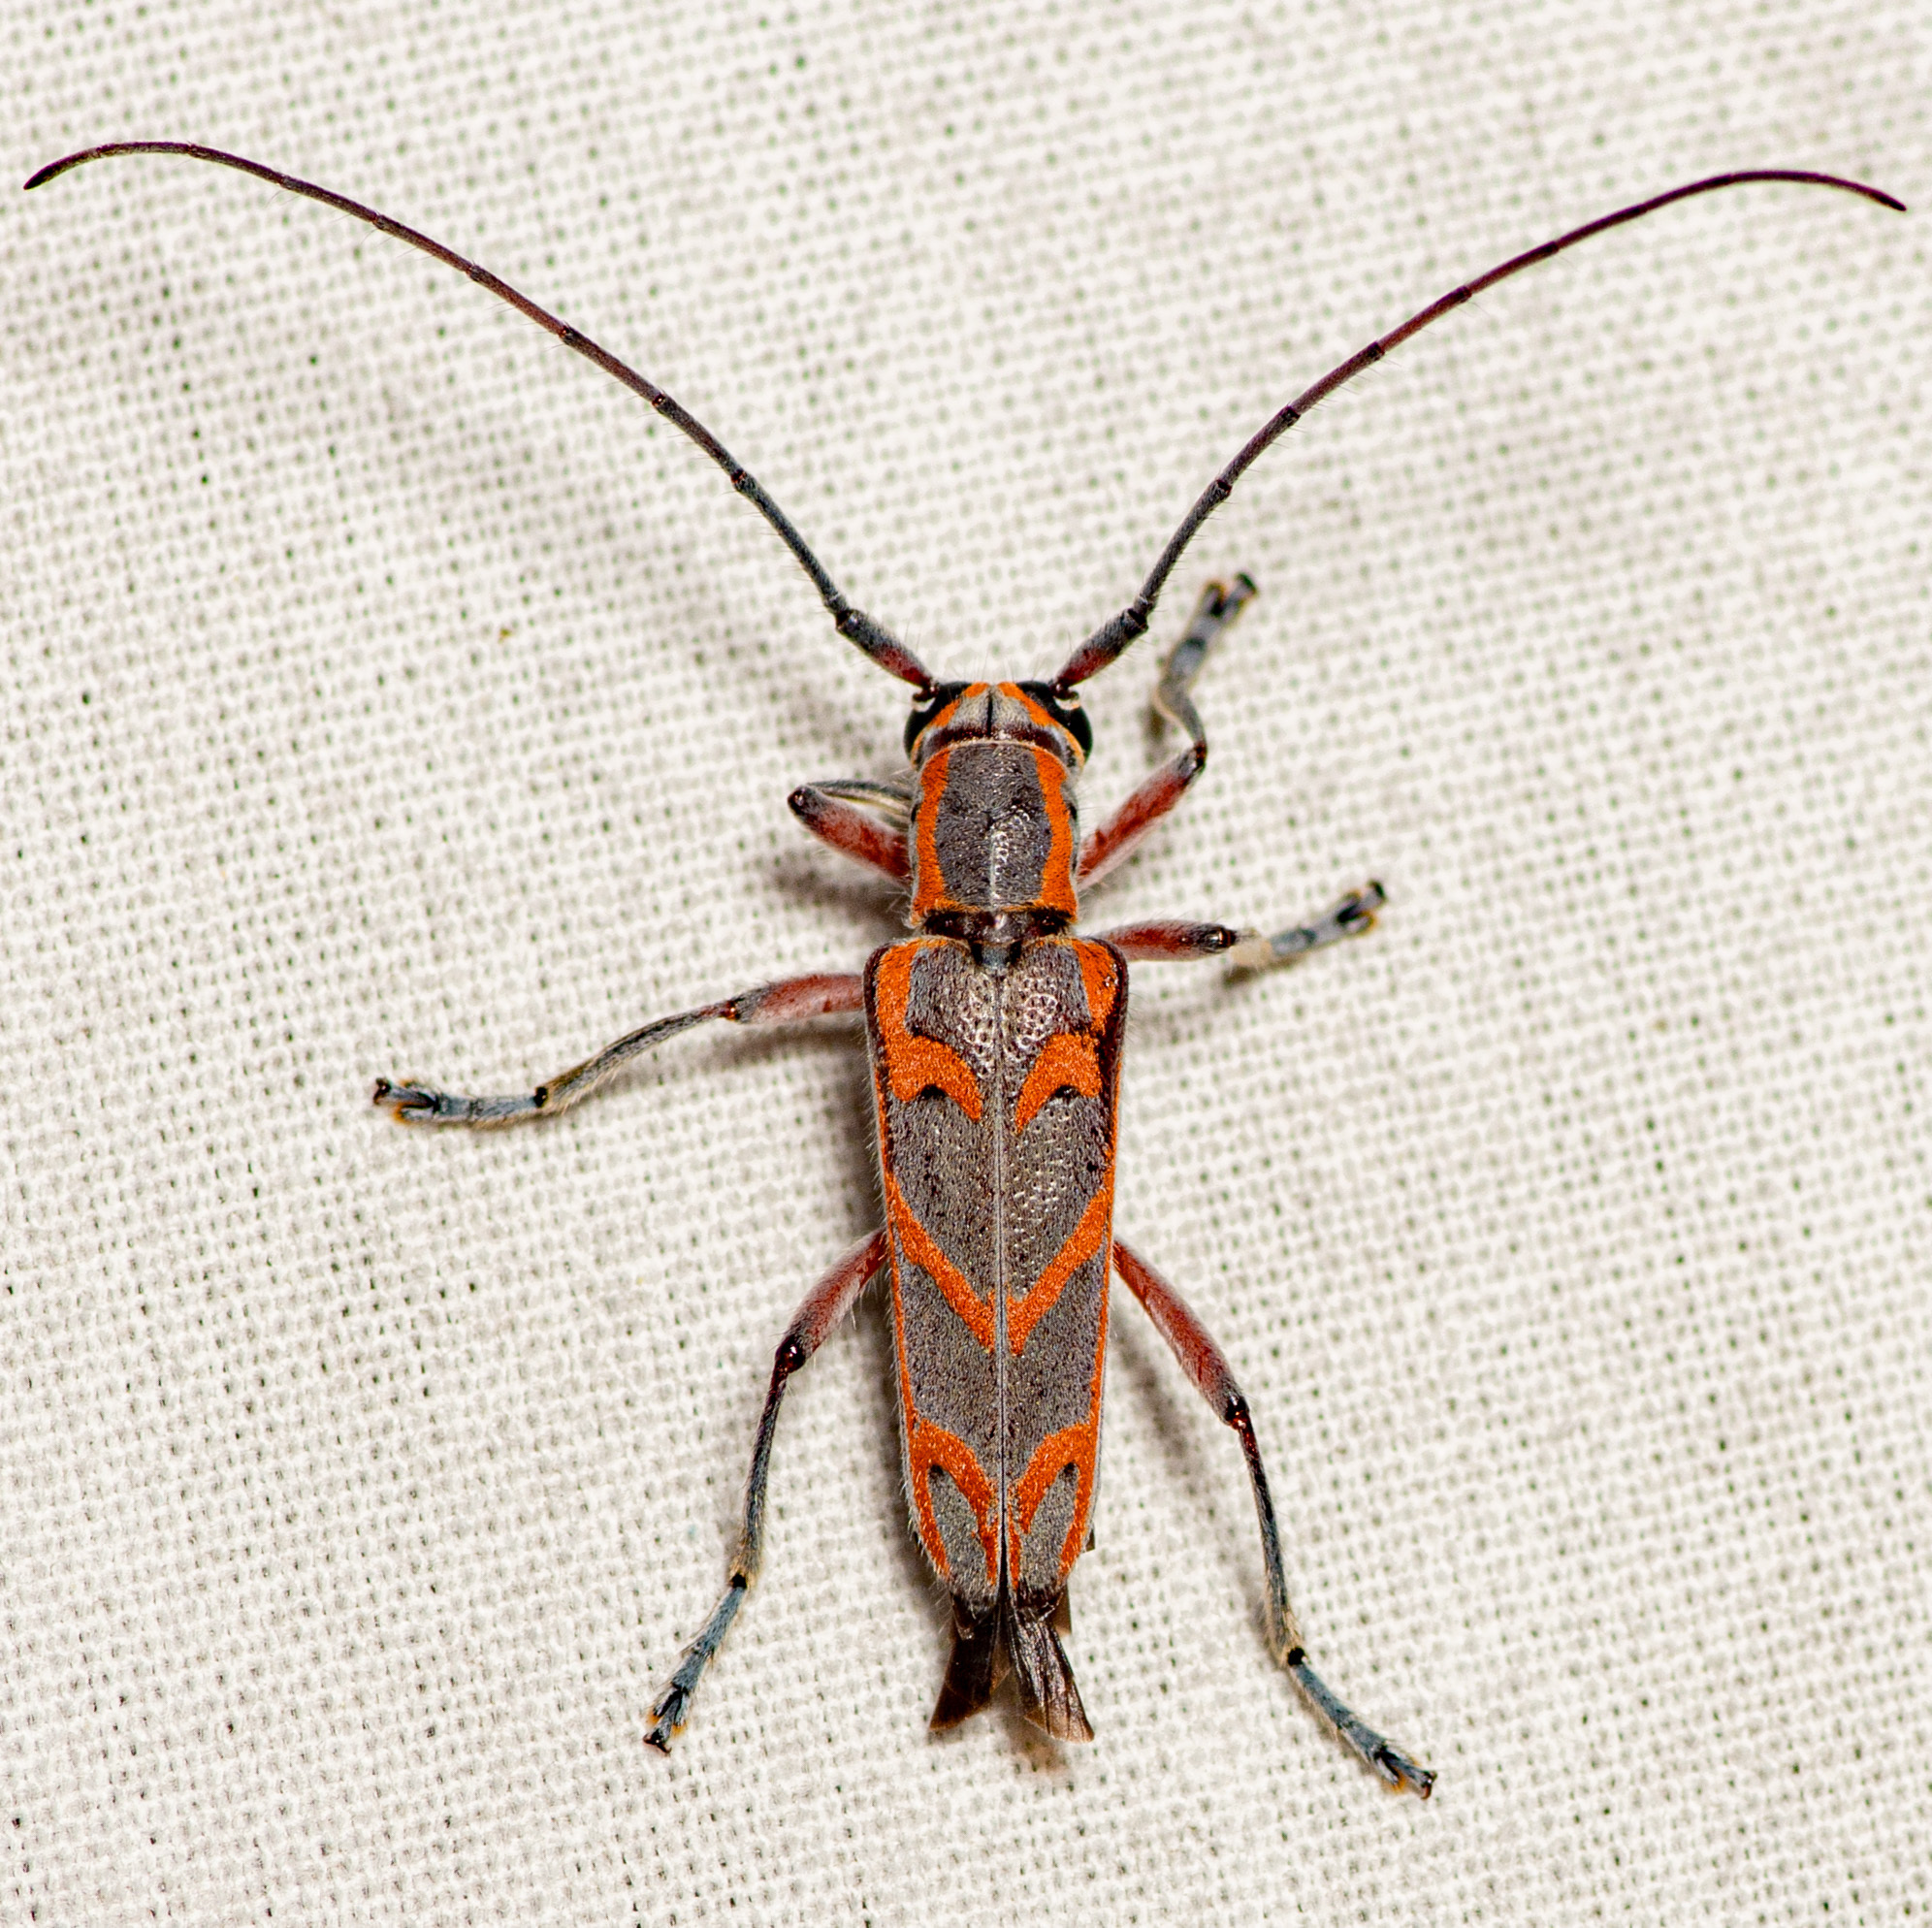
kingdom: Animalia
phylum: Arthropoda
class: Insecta
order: Coleoptera
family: Cerambycidae
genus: Saperda
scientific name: Saperda tridentata
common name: Elm borer
